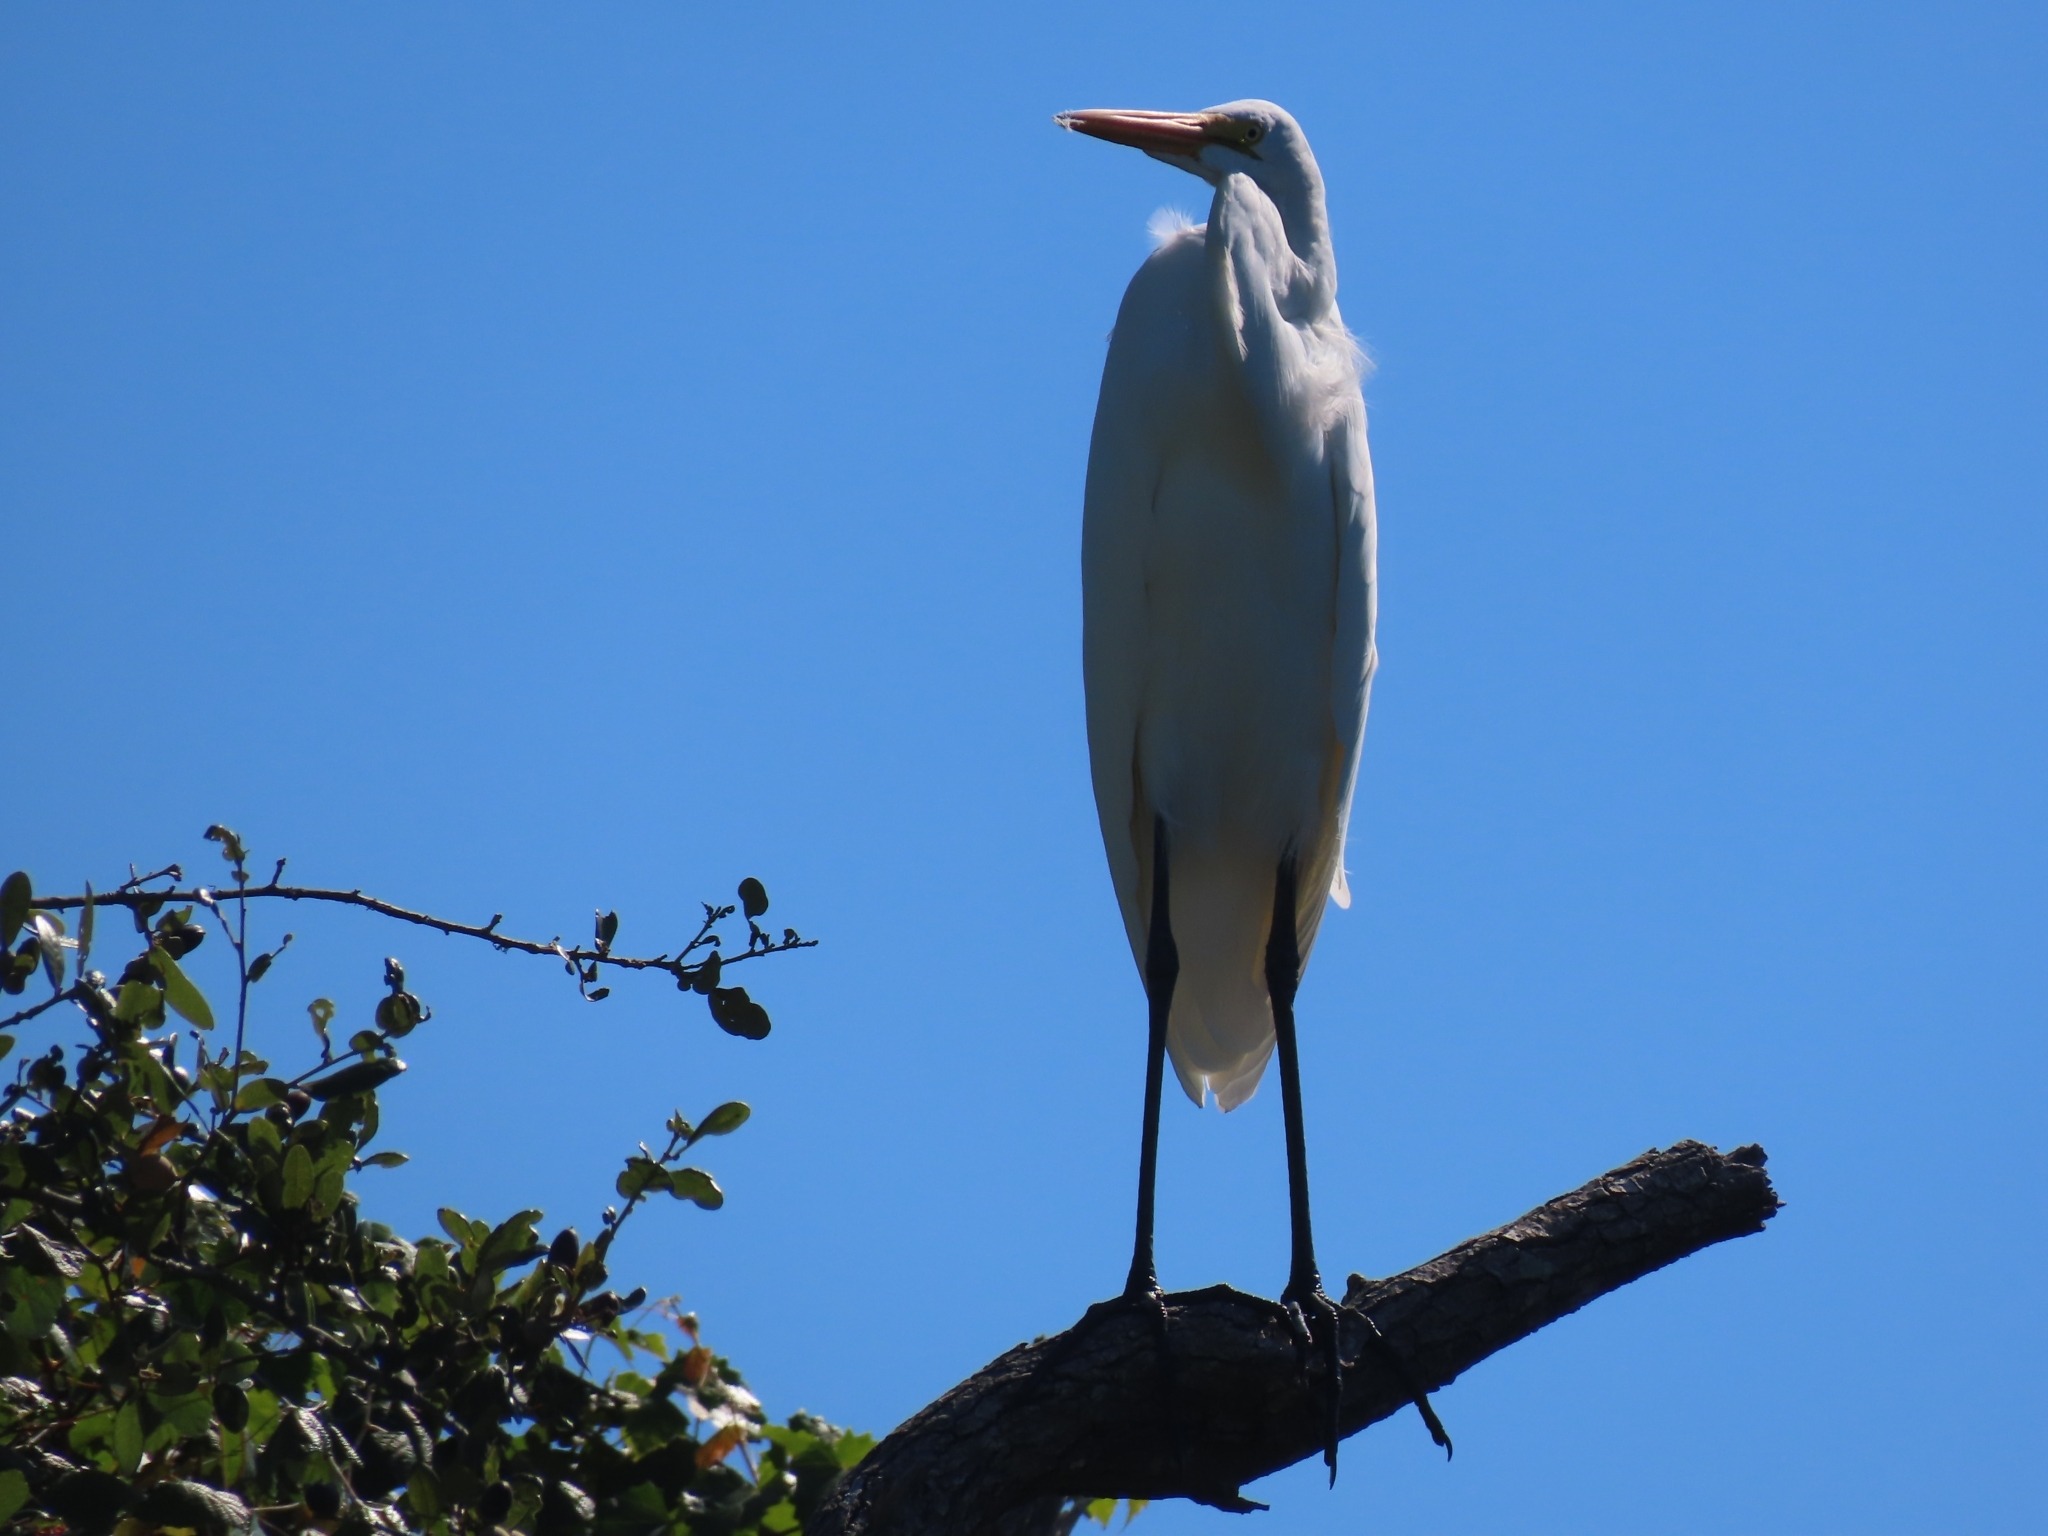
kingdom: Animalia
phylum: Chordata
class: Aves
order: Pelecaniformes
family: Ardeidae
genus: Ardea
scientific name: Ardea alba
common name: Great egret
